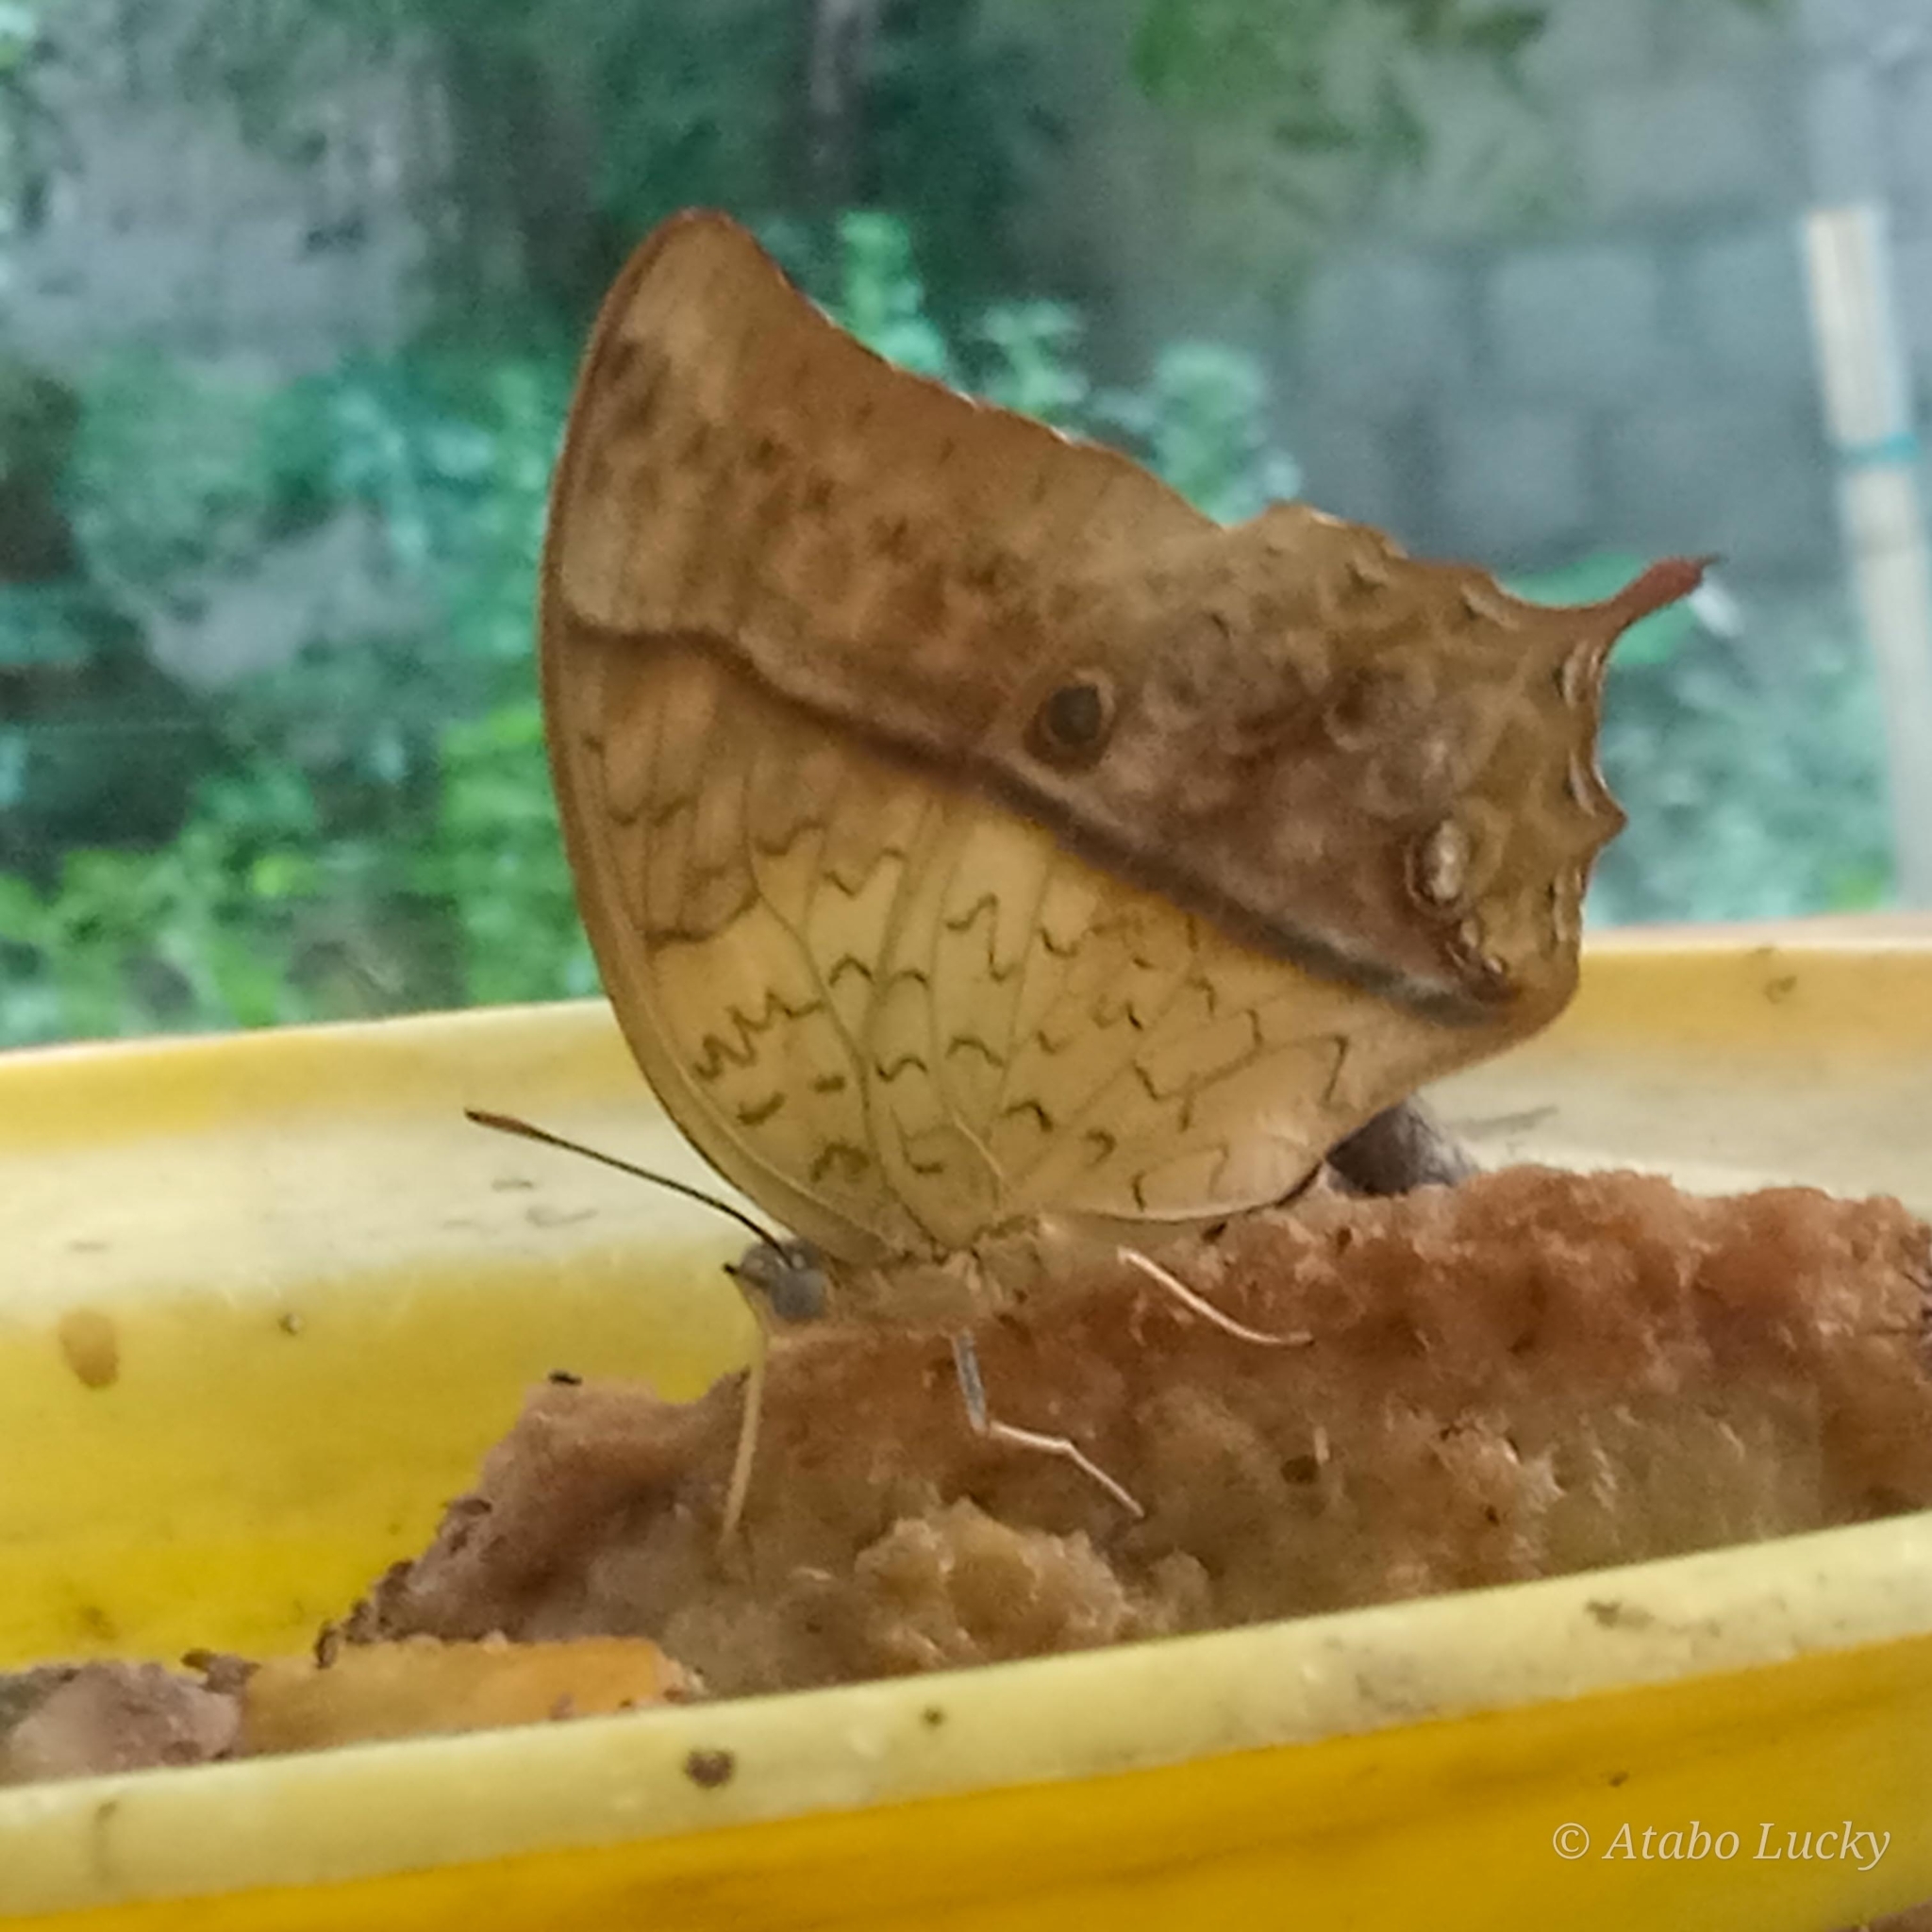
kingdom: Animalia
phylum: Arthropoda
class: Insecta
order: Lepidoptera
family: Nymphalidae
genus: Charaxes
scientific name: Charaxes varanes
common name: Common pearl charaxes
